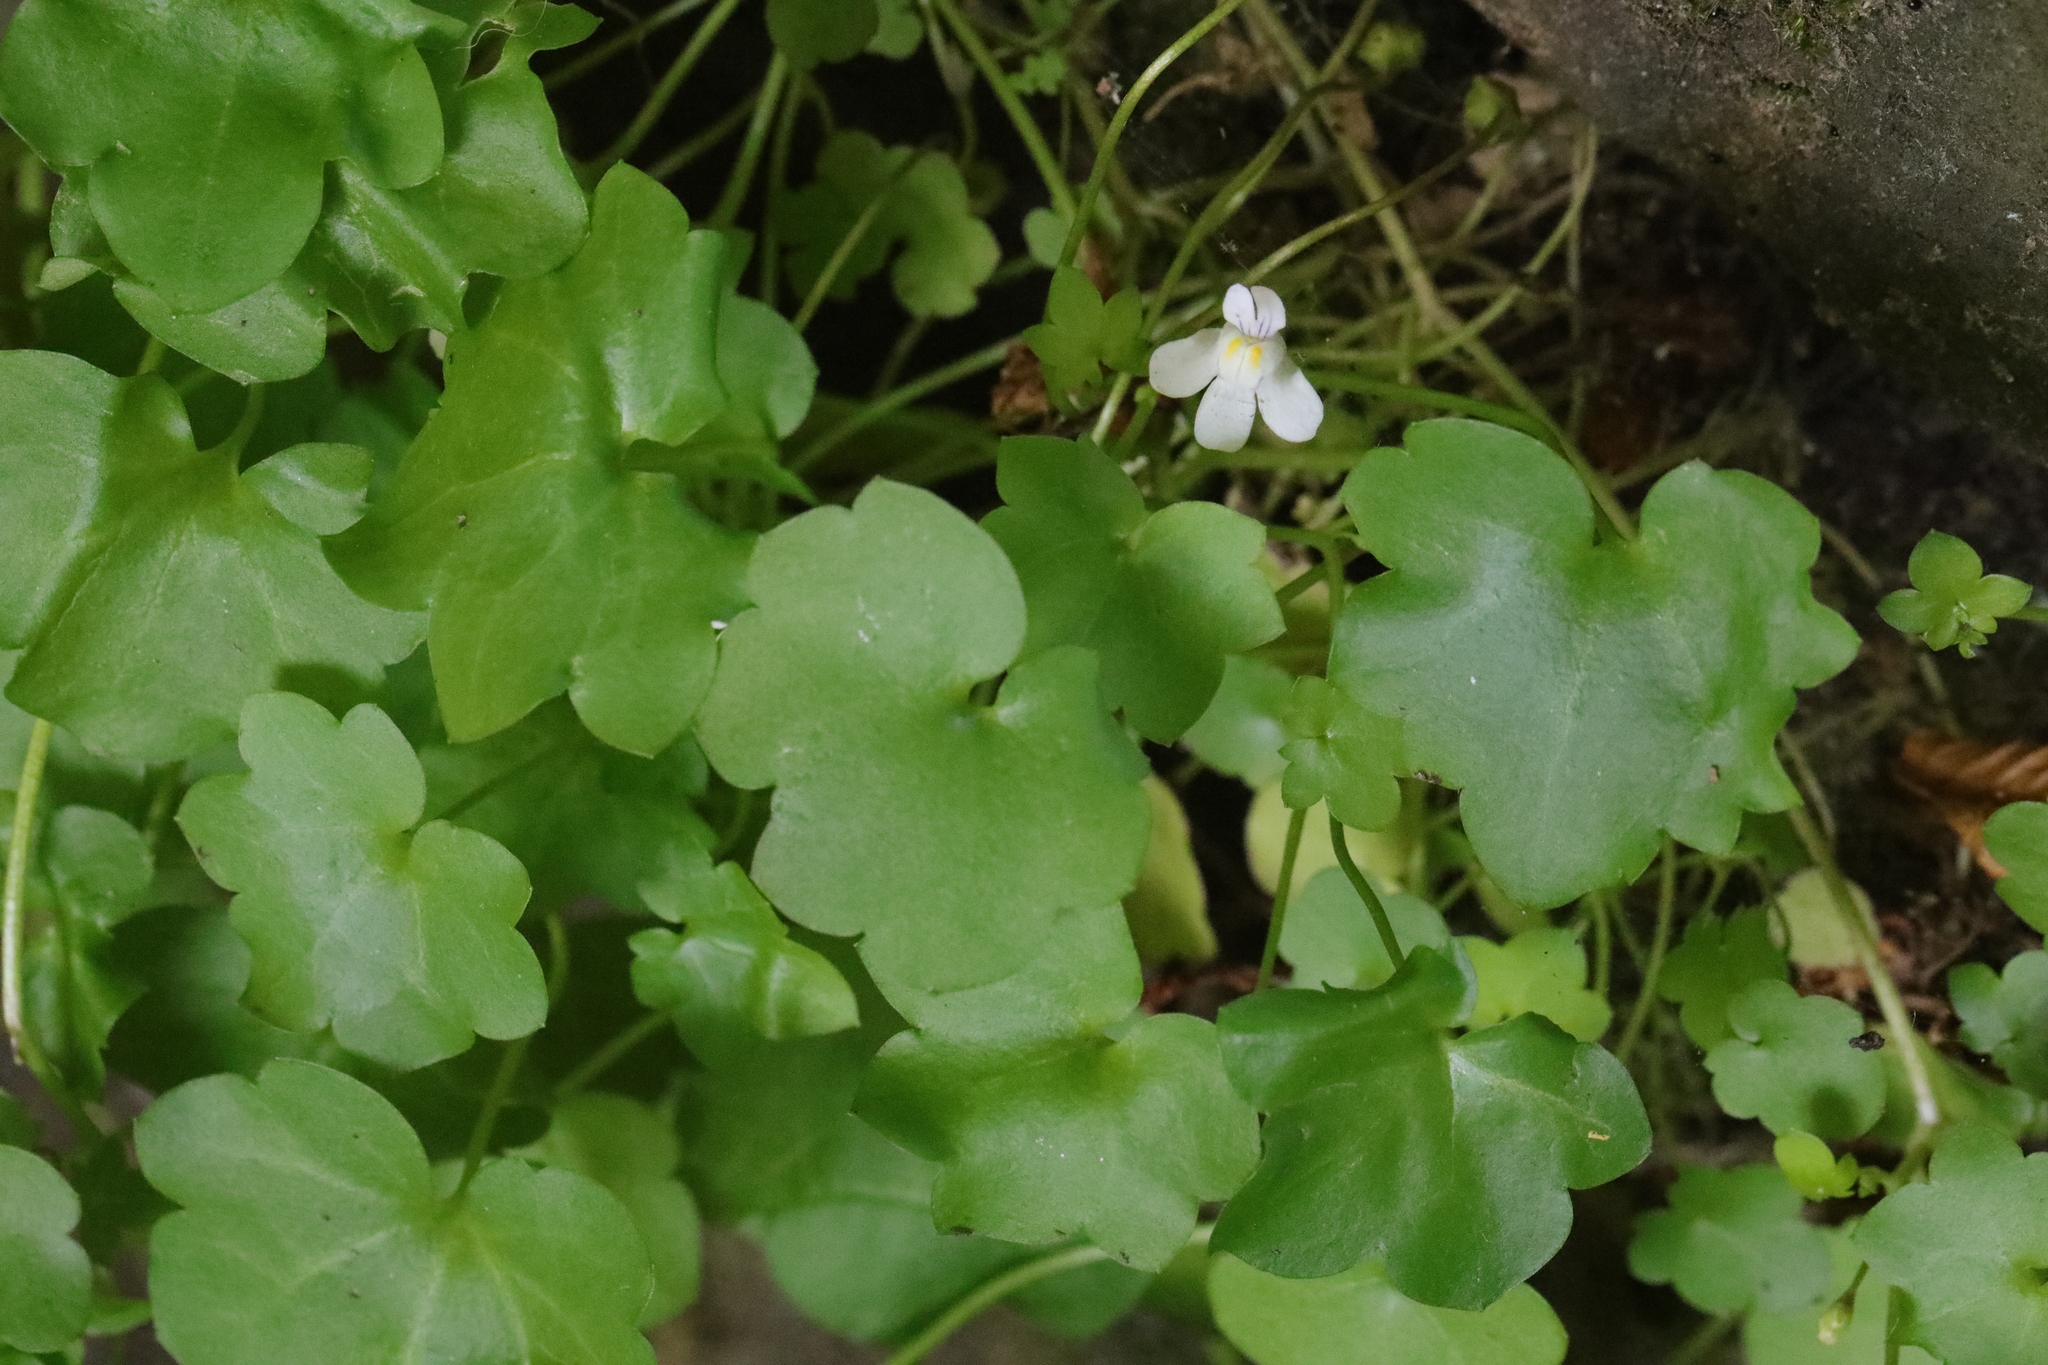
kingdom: Plantae
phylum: Tracheophyta
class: Magnoliopsida
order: Lamiales
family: Plantaginaceae
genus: Cymbalaria
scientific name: Cymbalaria muralis
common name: Ivy-leaved toadflax
